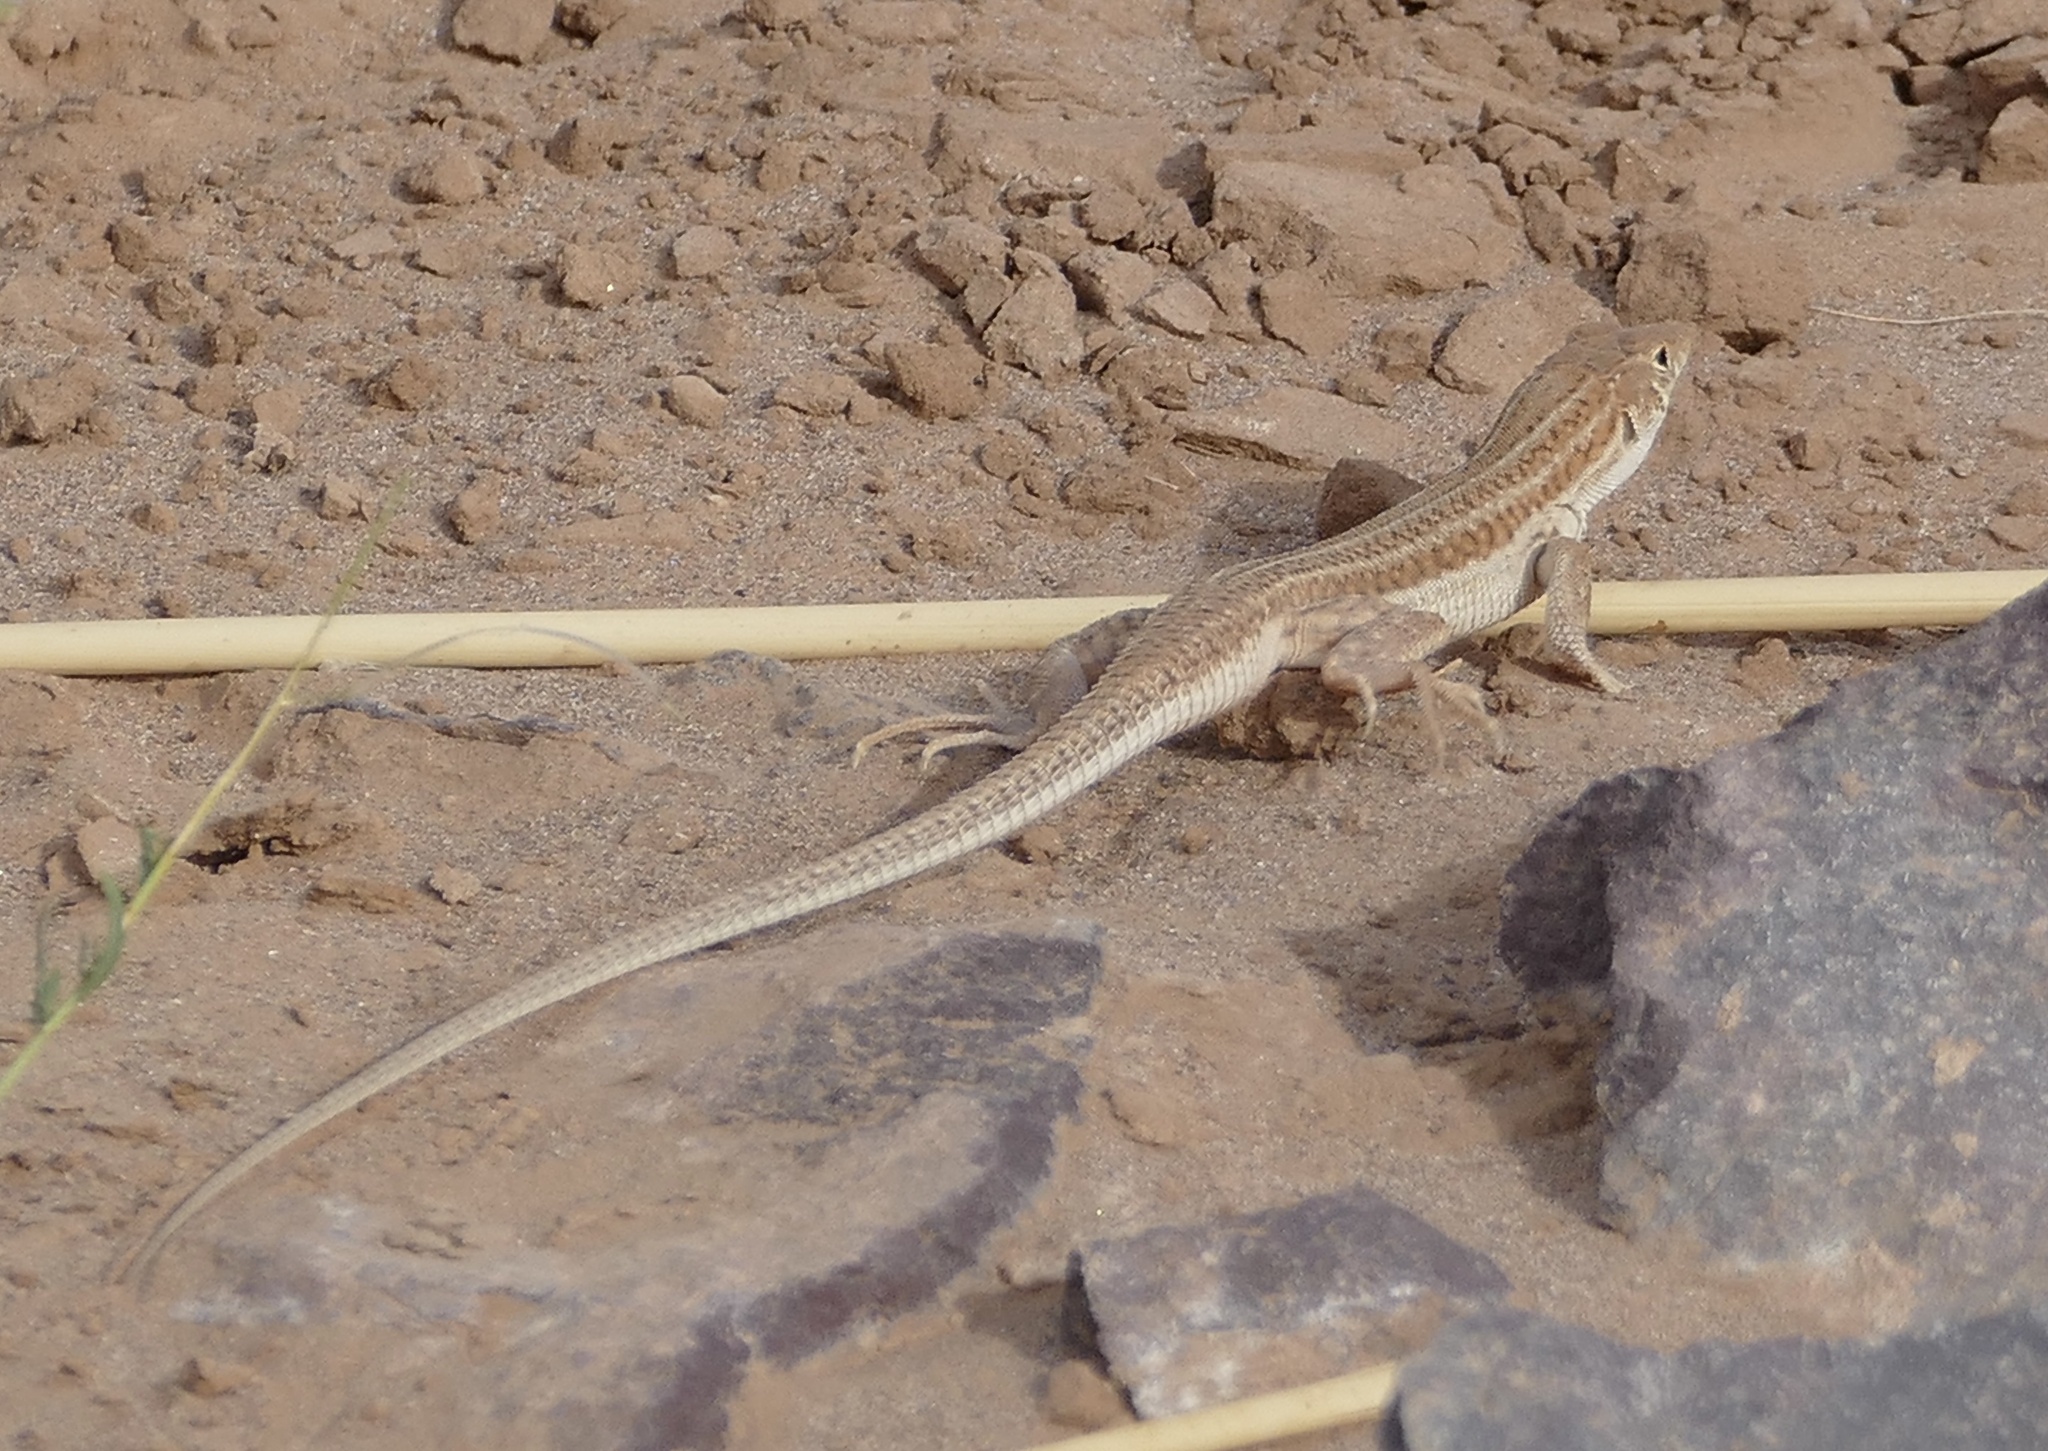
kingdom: Animalia
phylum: Chordata
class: Squamata
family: Lacertidae
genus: Acanthodactylus
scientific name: Acanthodactylus boskianus
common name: Bosc’s fringe-toed lizard
